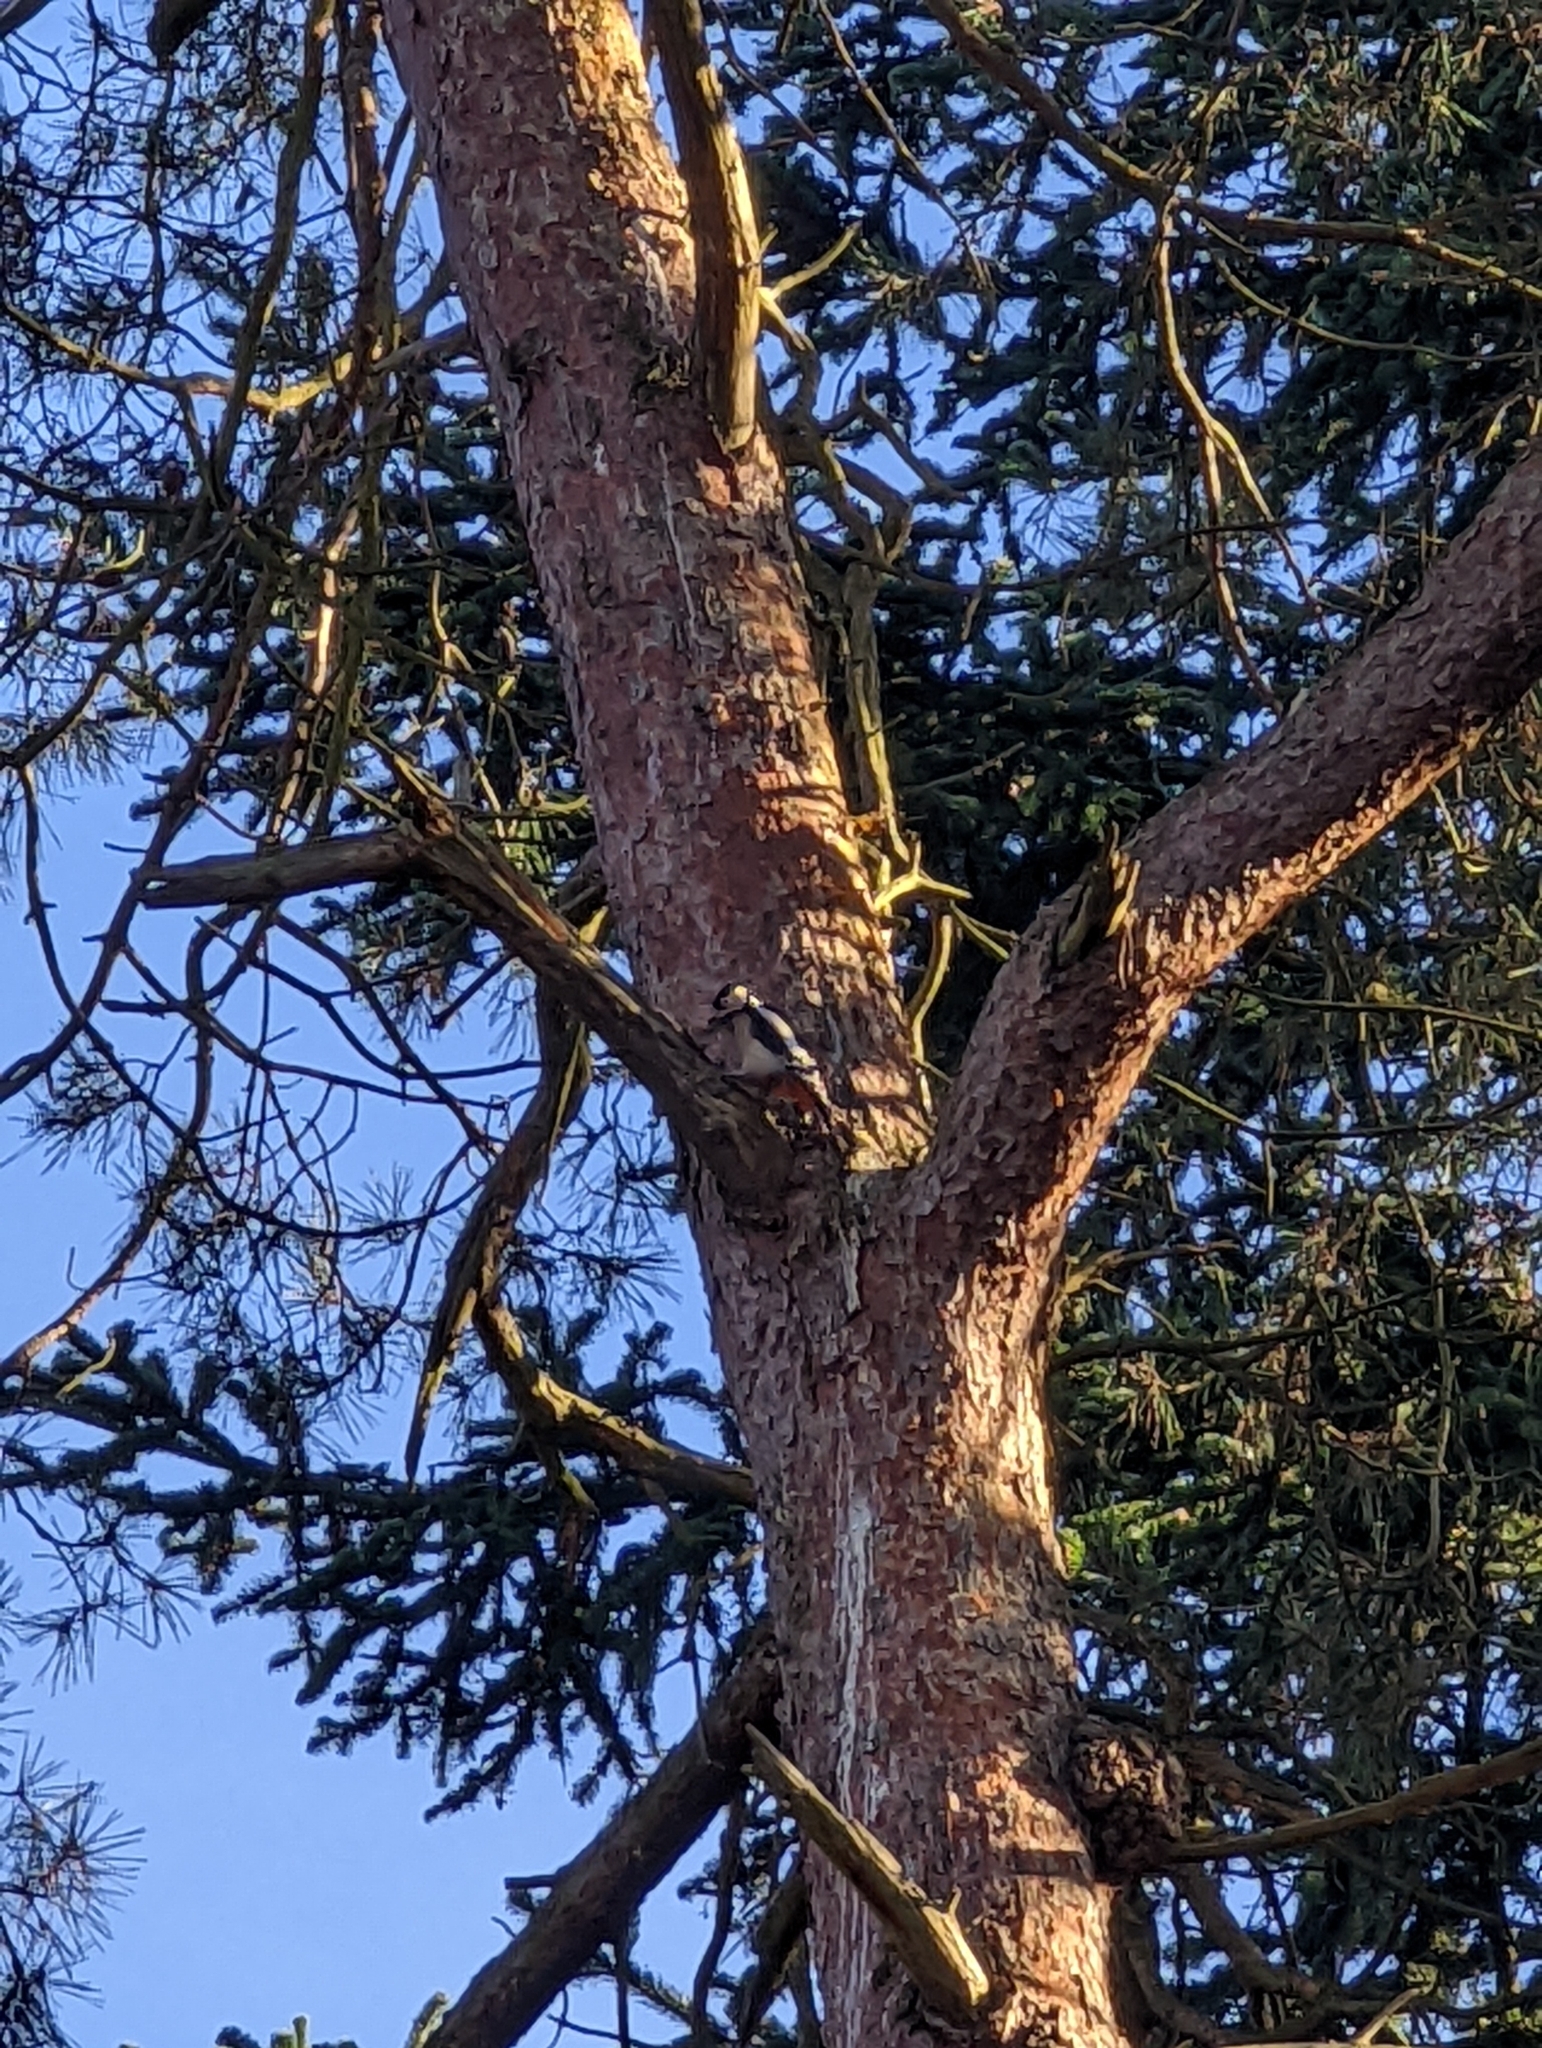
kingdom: Animalia
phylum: Chordata
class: Aves
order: Piciformes
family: Picidae
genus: Dendrocopos
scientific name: Dendrocopos major
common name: Great spotted woodpecker
